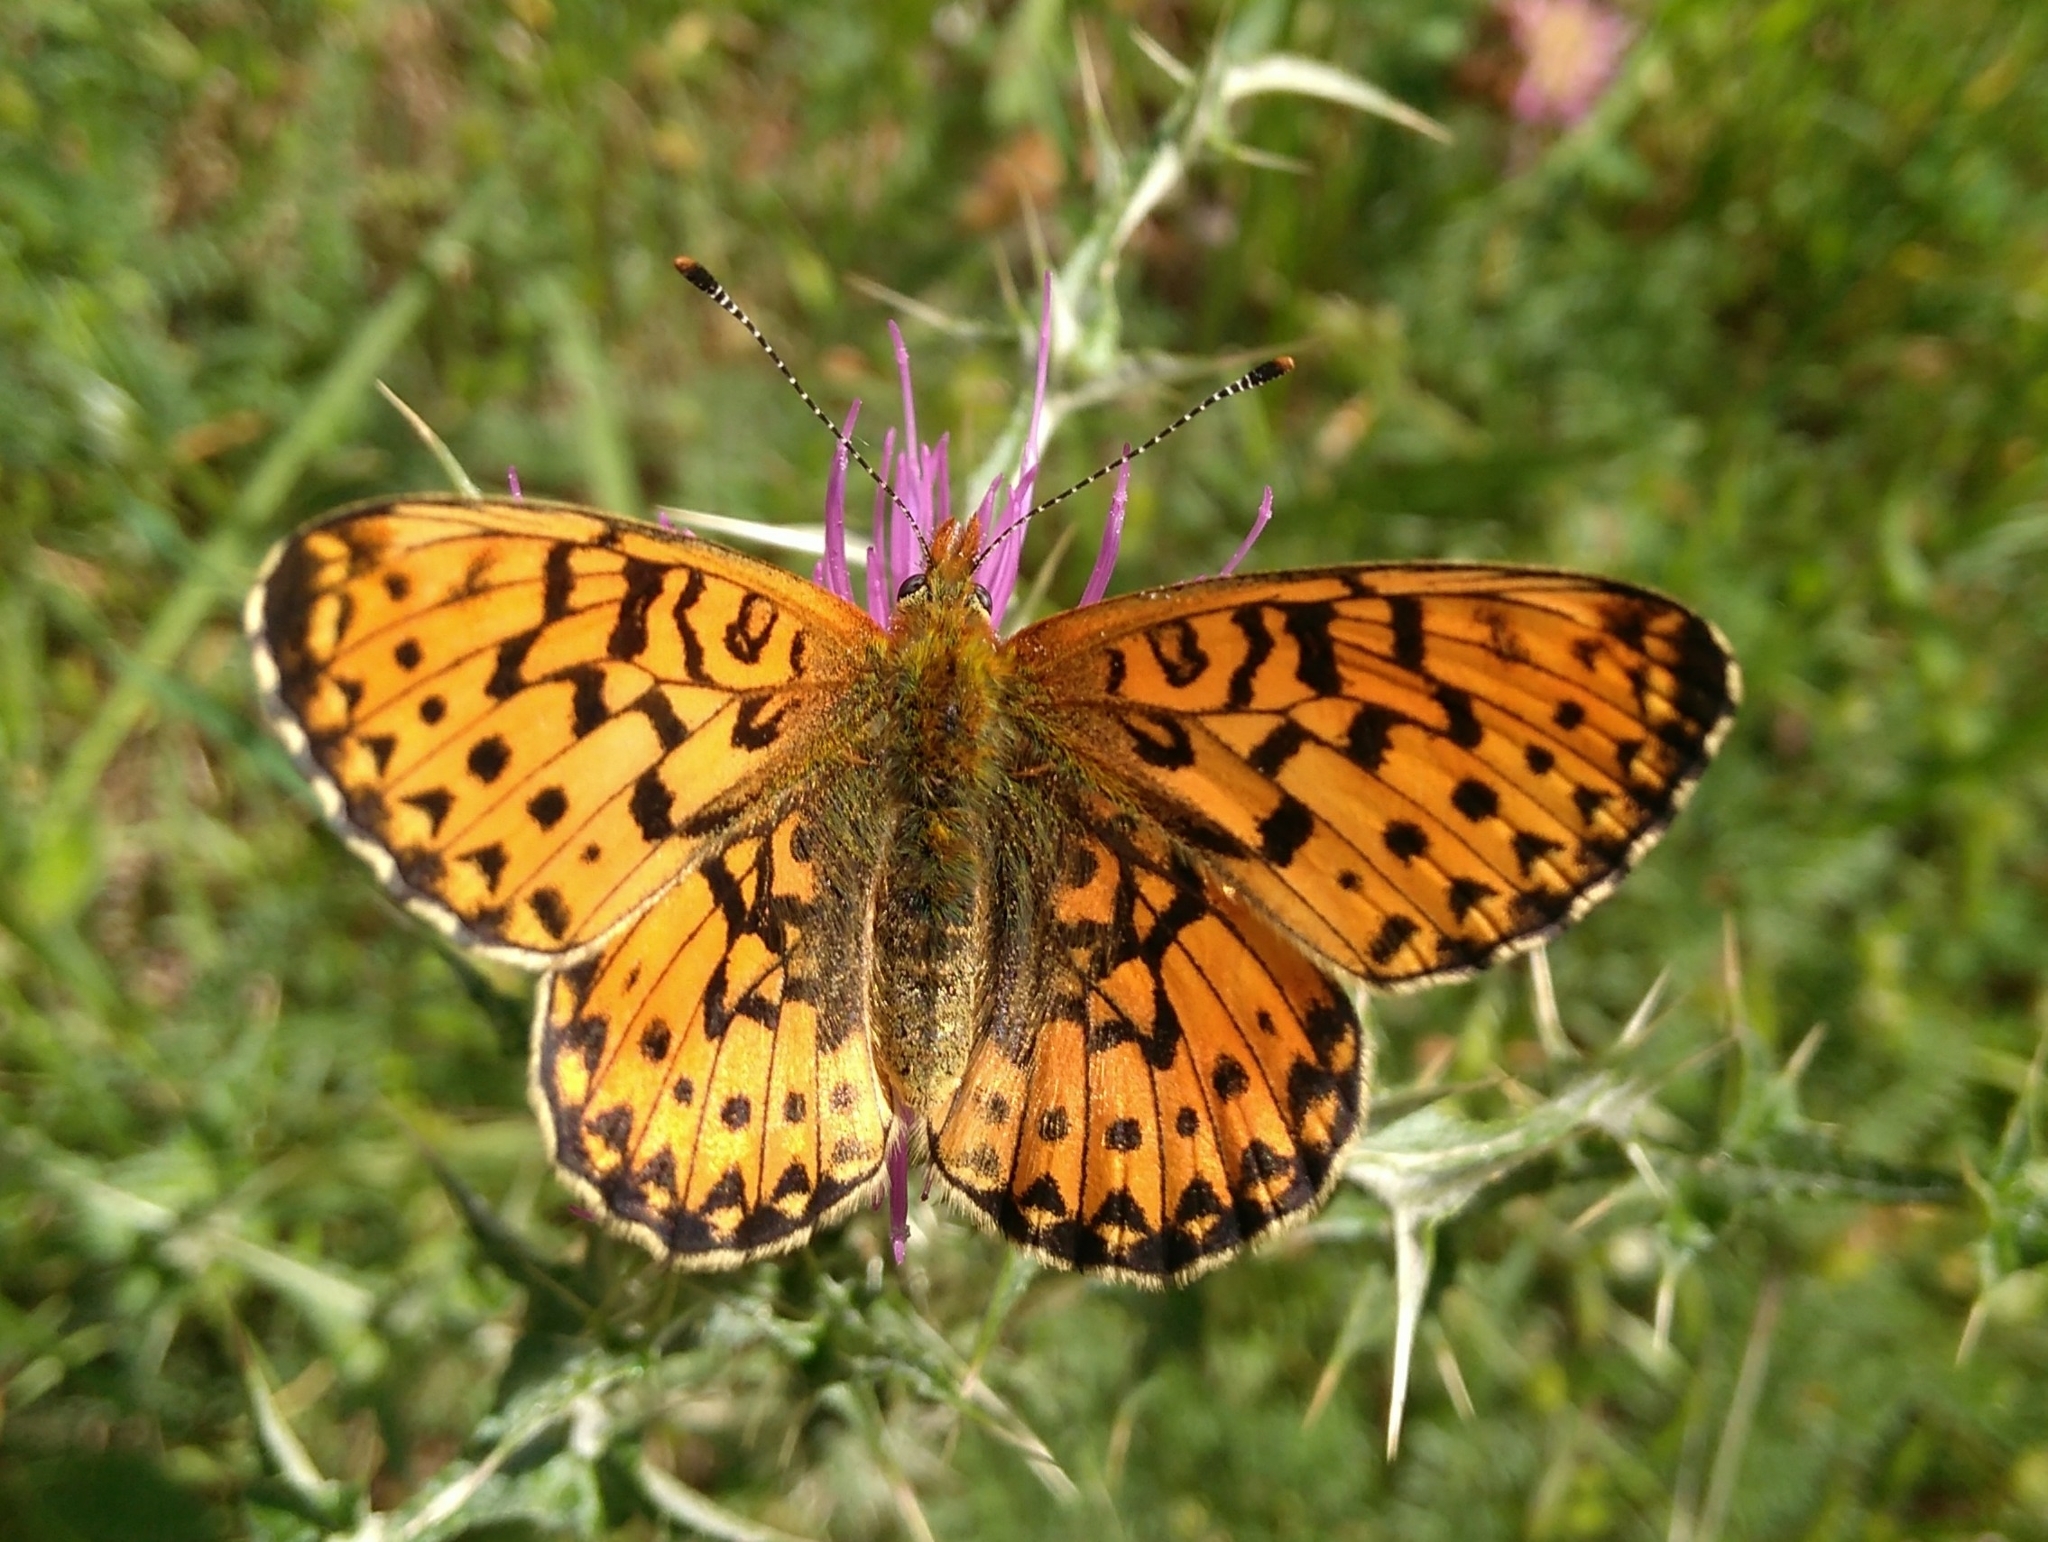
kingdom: Animalia
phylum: Arthropoda
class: Insecta
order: Lepidoptera
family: Nymphalidae
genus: Clossiana
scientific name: Clossiana euphrosyne
